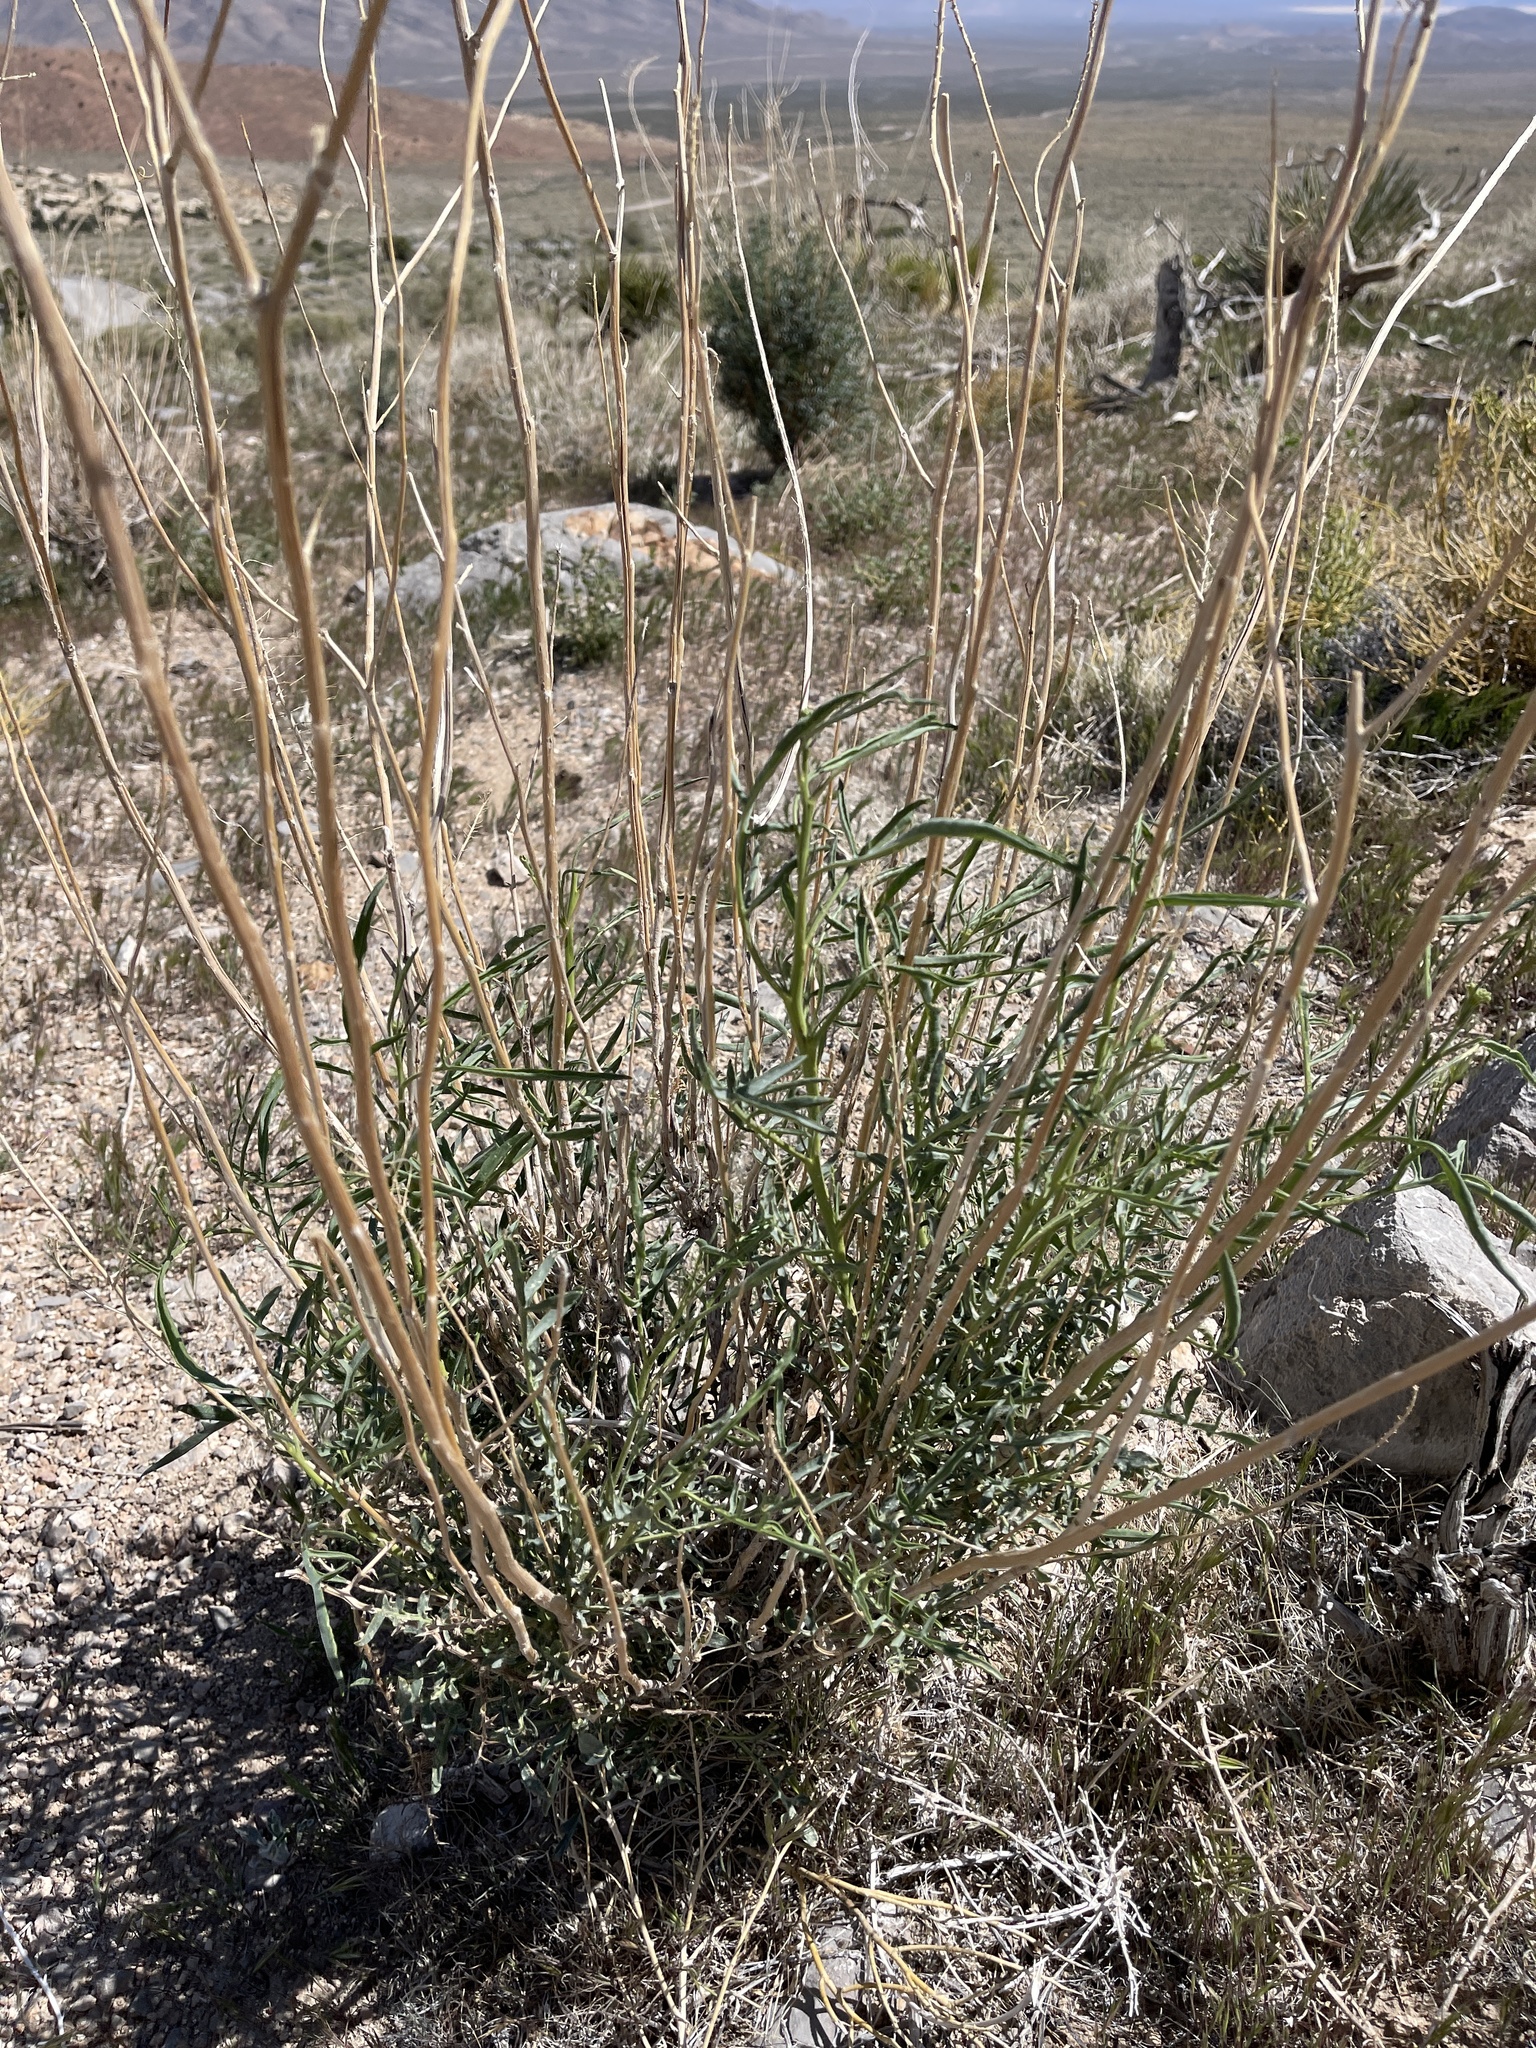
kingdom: Plantae
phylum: Tracheophyta
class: Magnoliopsida
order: Brassicales
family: Brassicaceae
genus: Stanleya
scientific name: Stanleya pinnata
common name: Prince's-plume
